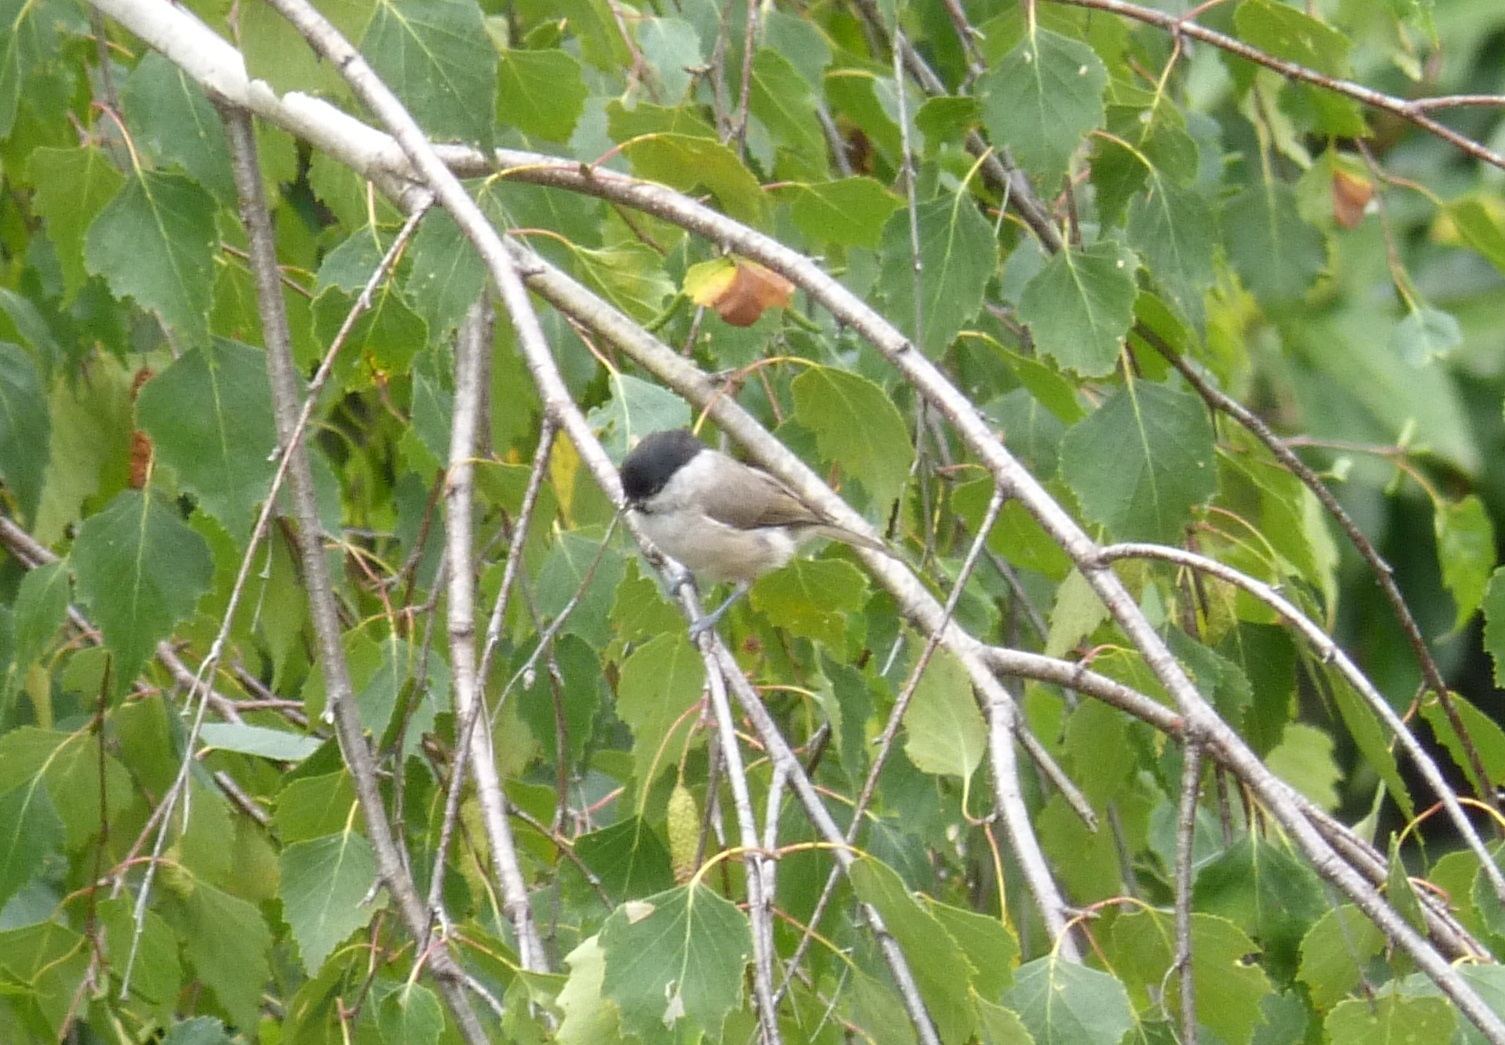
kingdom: Animalia
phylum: Chordata
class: Aves
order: Passeriformes
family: Paridae
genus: Poecile
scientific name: Poecile palustris
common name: Marsh tit
